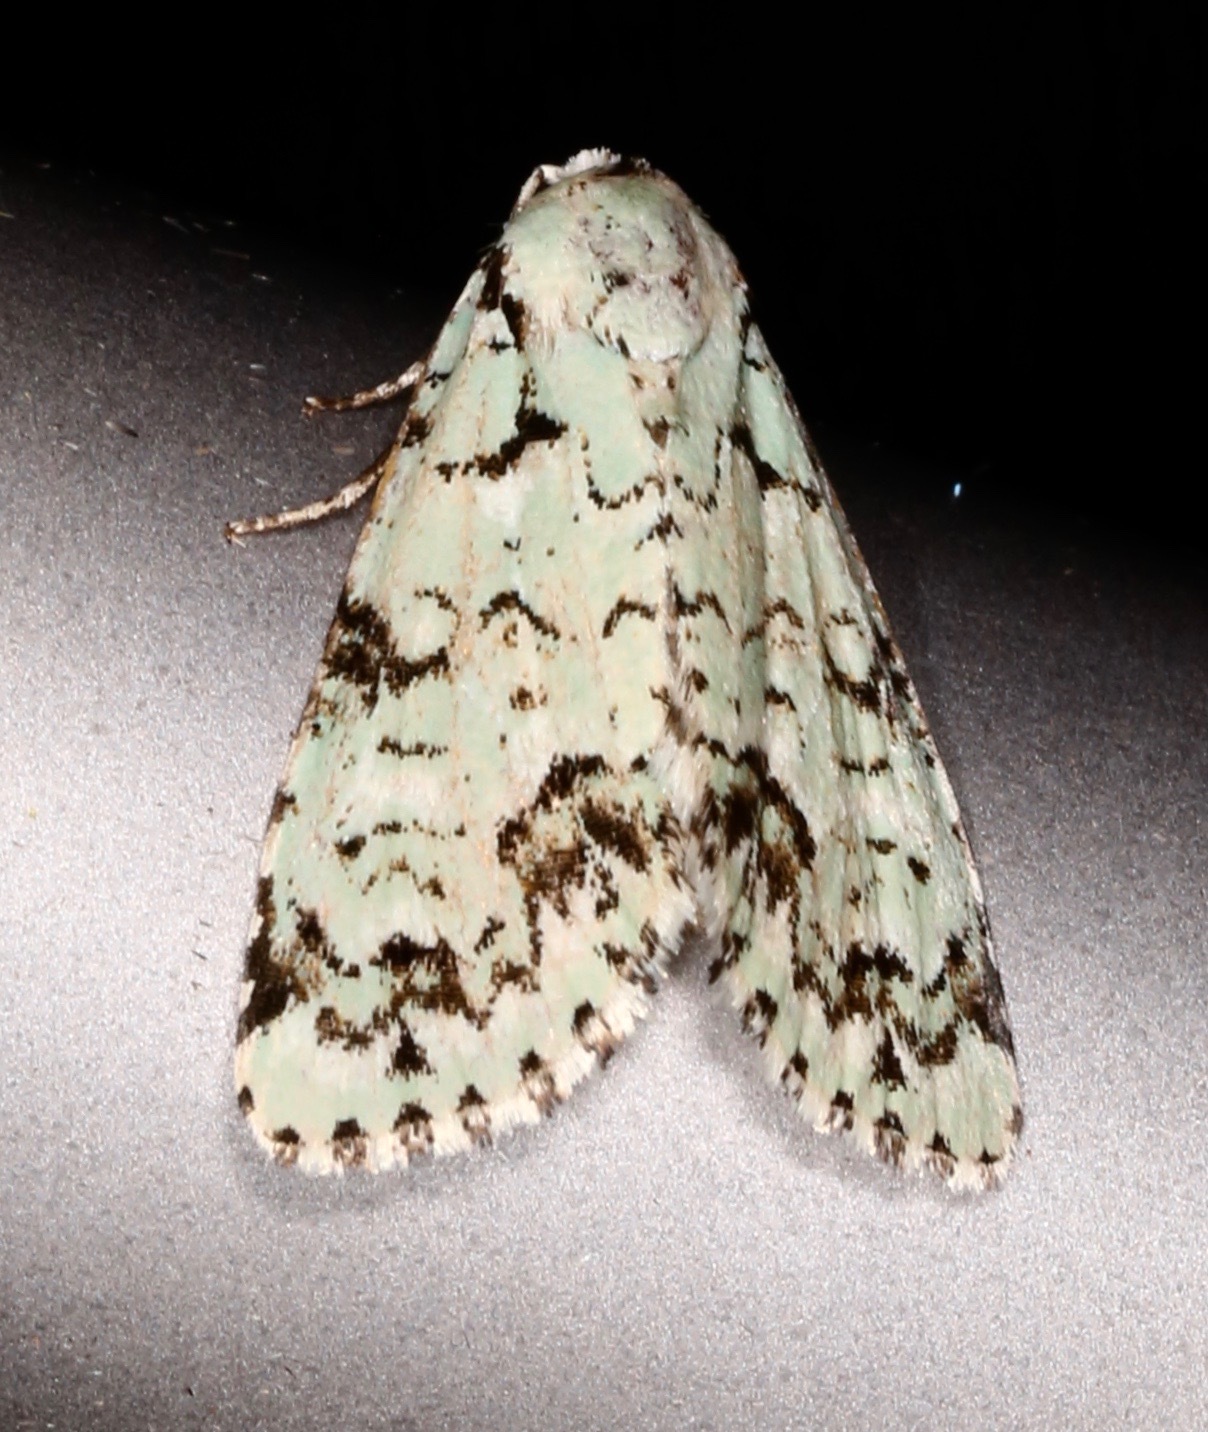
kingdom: Animalia
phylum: Arthropoda
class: Insecta
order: Lepidoptera
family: Noctuidae
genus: Chloronycta
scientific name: Chloronycta tybo
